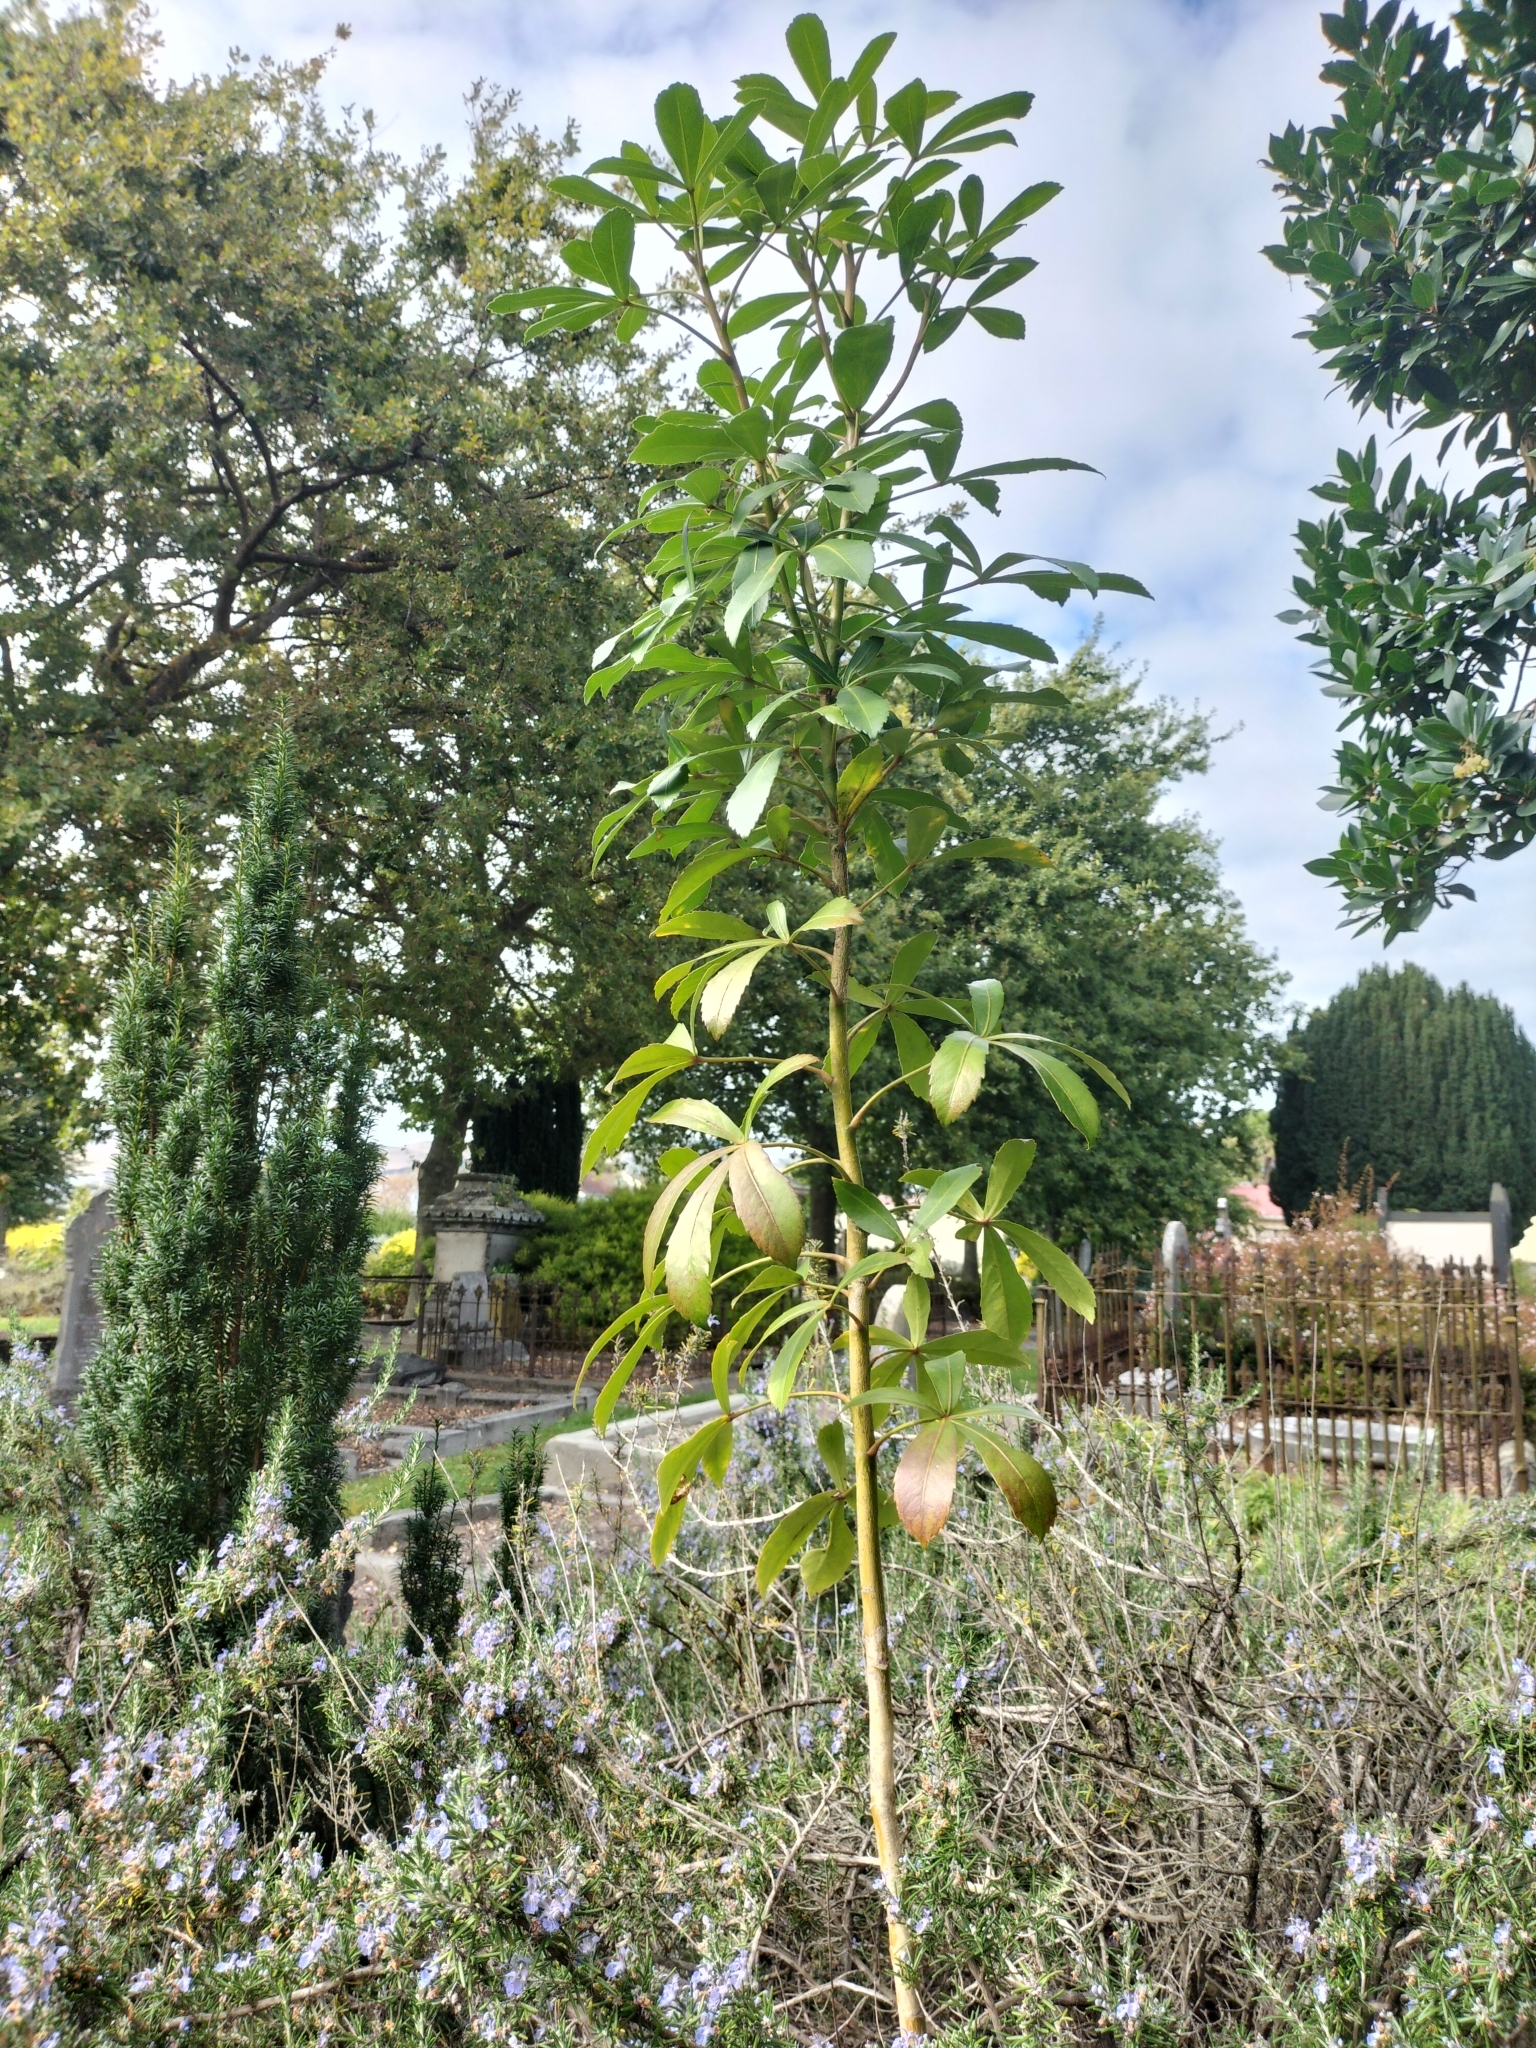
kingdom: Plantae
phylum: Tracheophyta
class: Magnoliopsida
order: Apiales
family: Araliaceae
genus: Pseudopanax
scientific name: Pseudopanax lessonii
